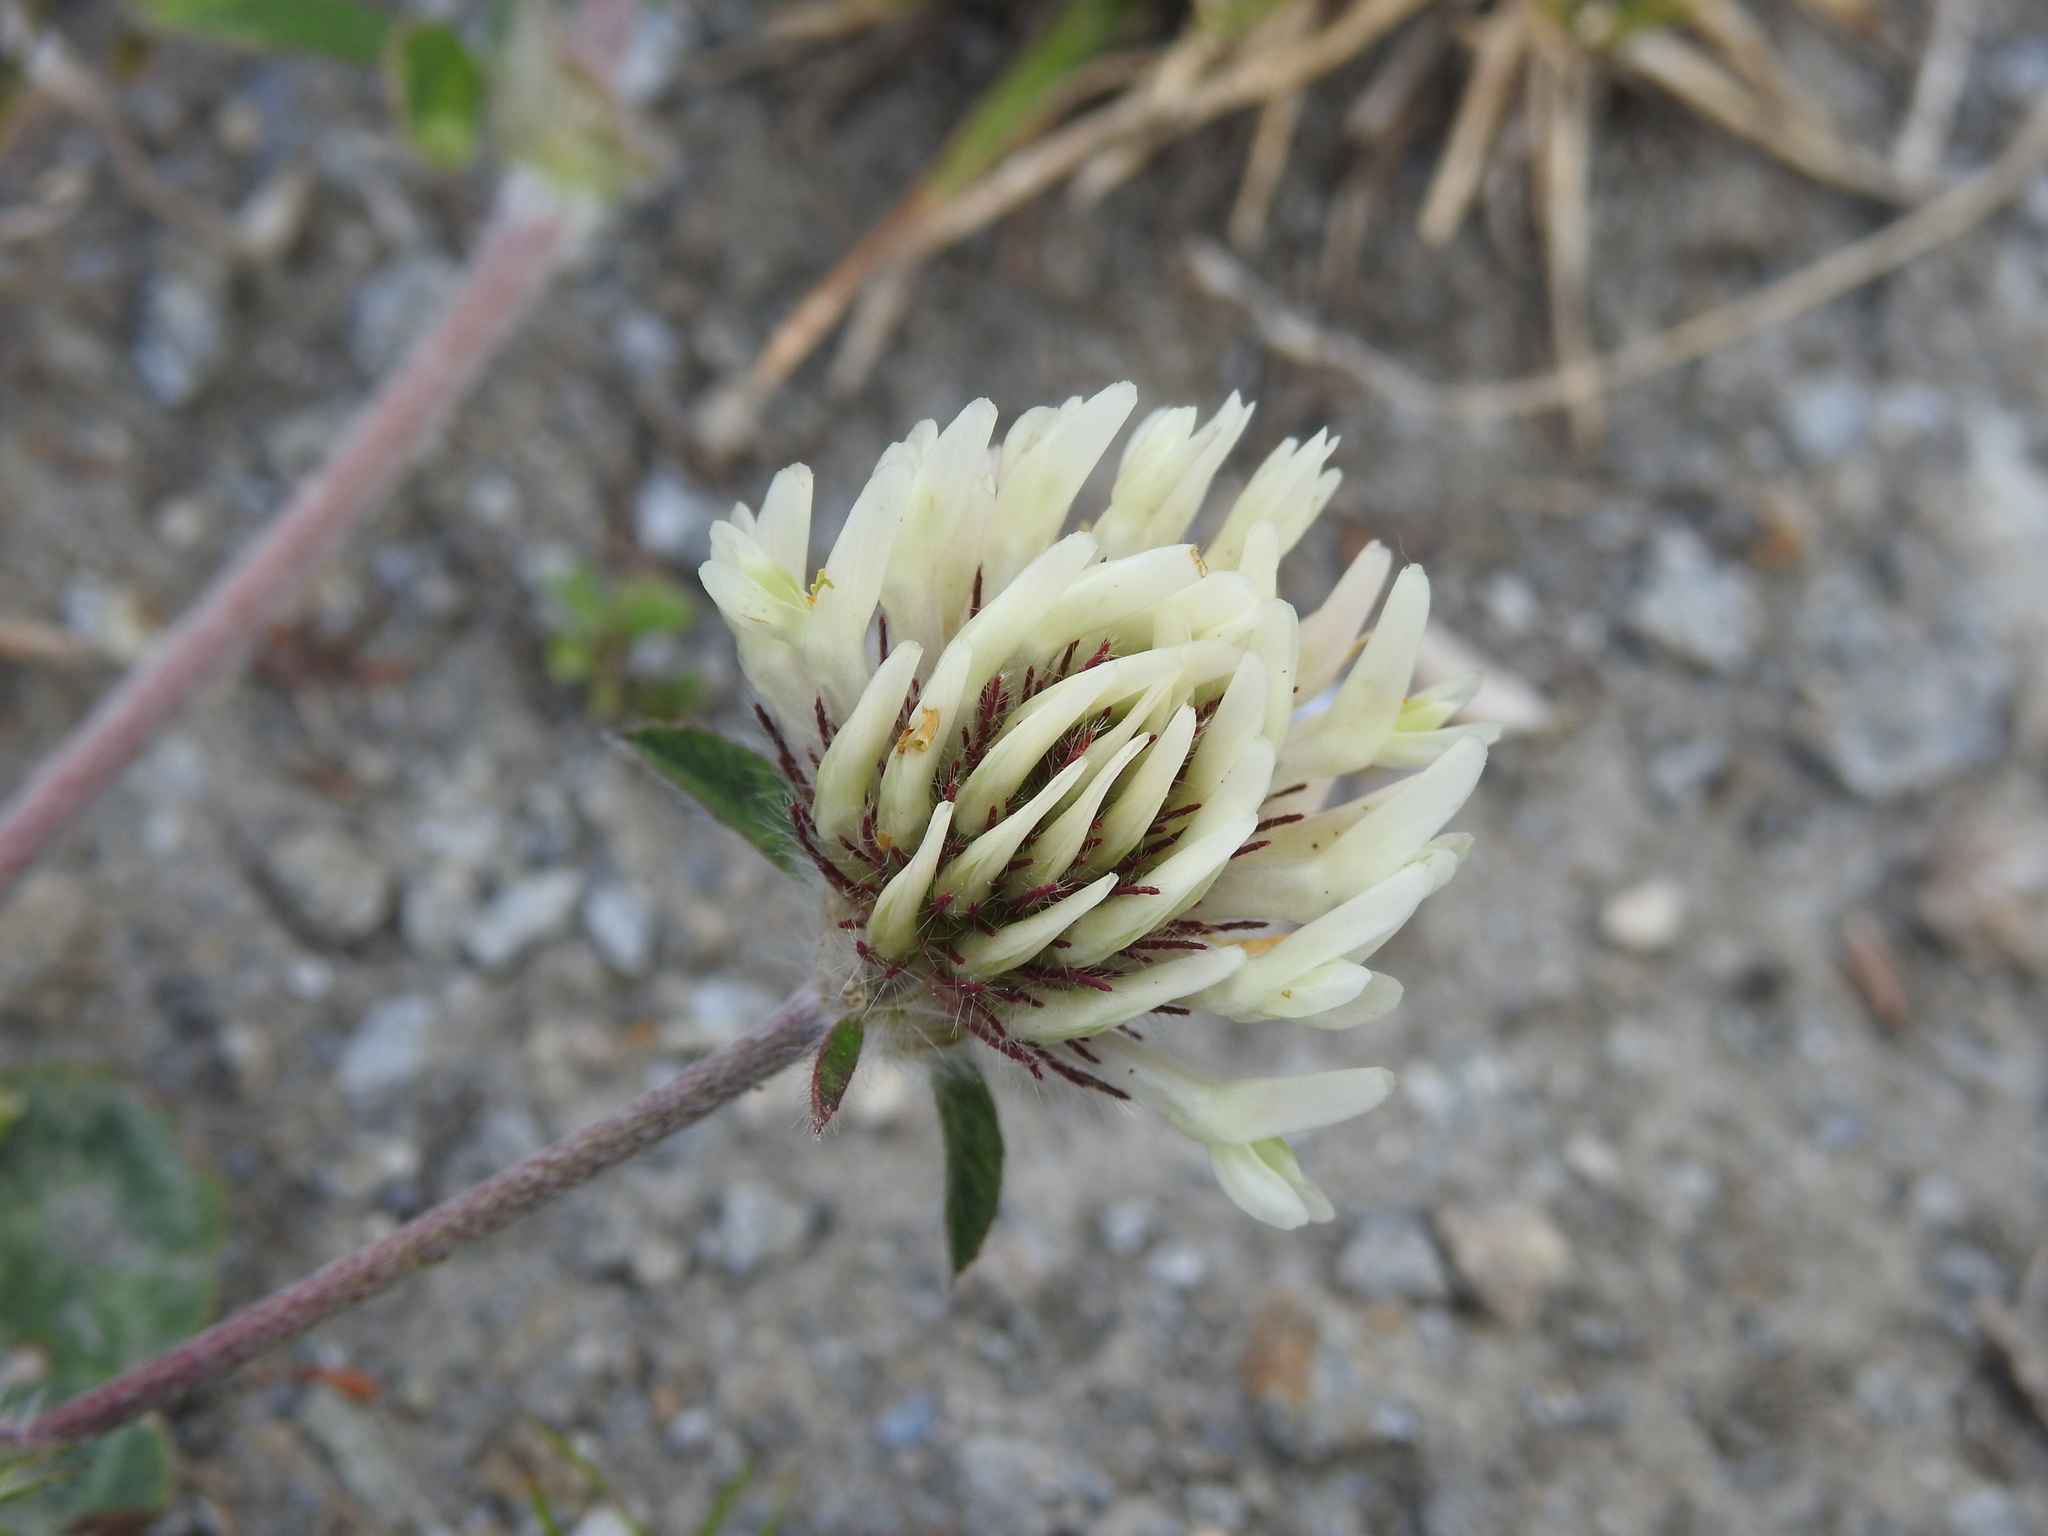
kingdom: Plantae
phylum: Tracheophyta
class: Magnoliopsida
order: Fabales
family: Fabaceae
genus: Trifolium
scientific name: Trifolium ochroleucon
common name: Sulphur clover
